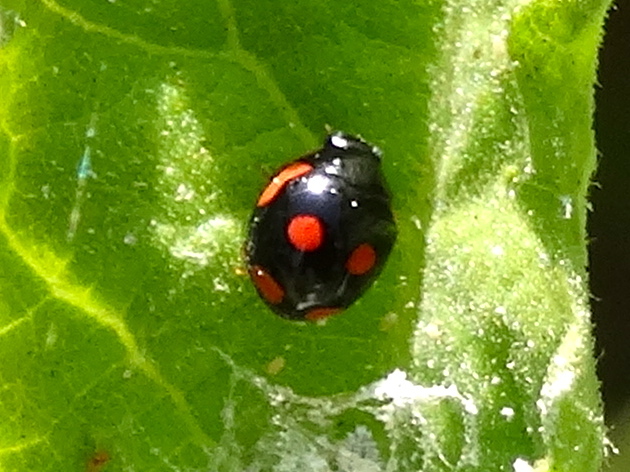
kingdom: Animalia
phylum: Arthropoda
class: Insecta
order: Coleoptera
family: Coccinellidae
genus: Hyperaspis
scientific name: Hyperaspis lateralis
